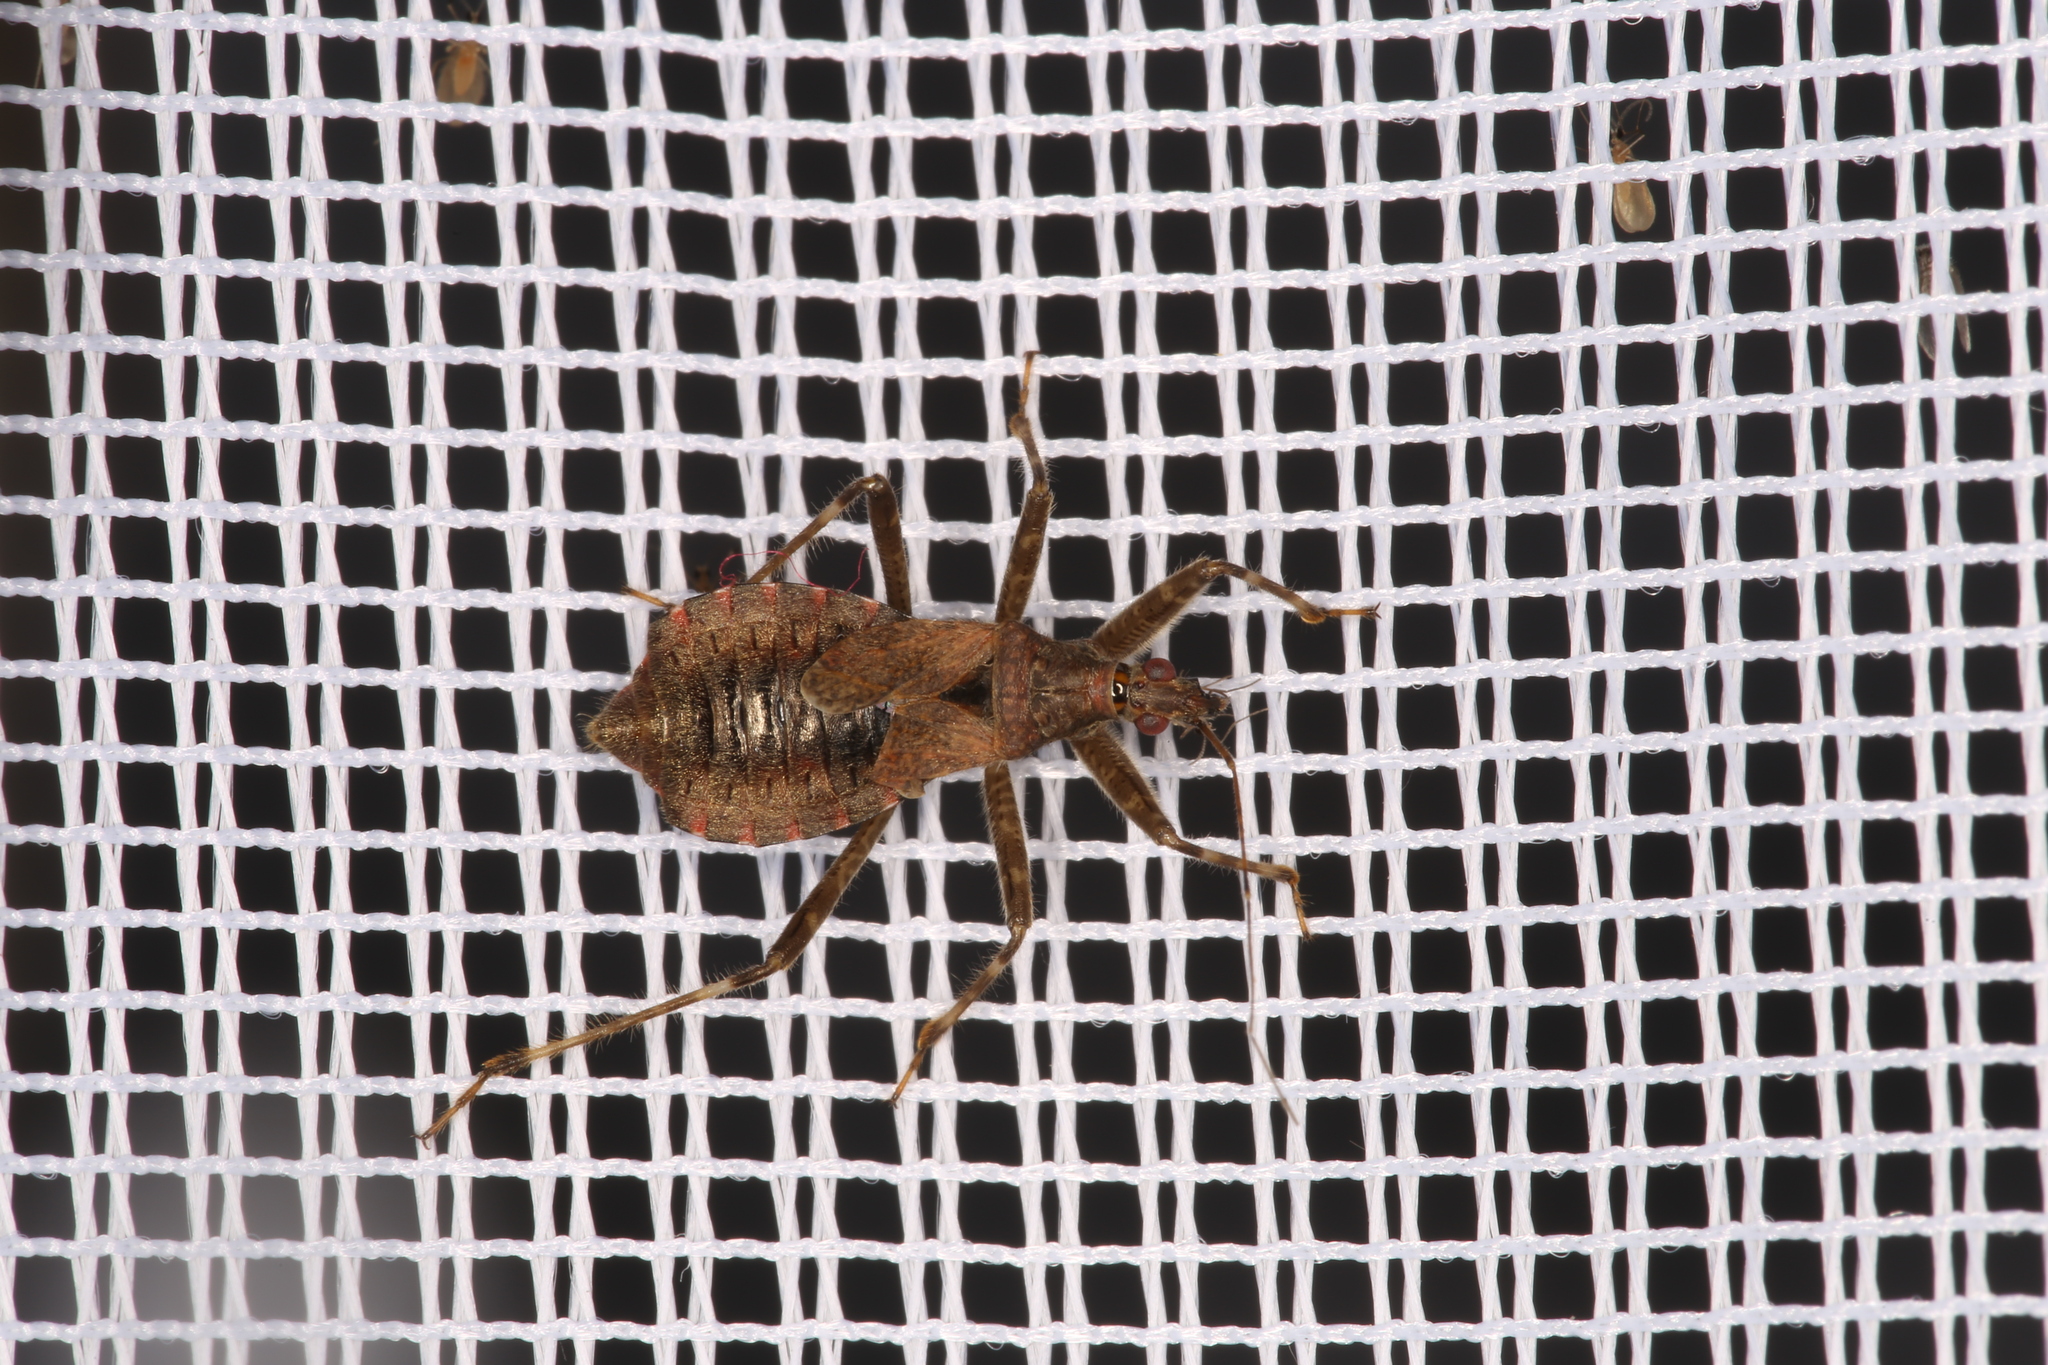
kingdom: Animalia
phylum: Arthropoda
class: Insecta
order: Hemiptera
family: Nabidae
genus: Himacerus
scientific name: Himacerus apterus
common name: Tree damsel bug
